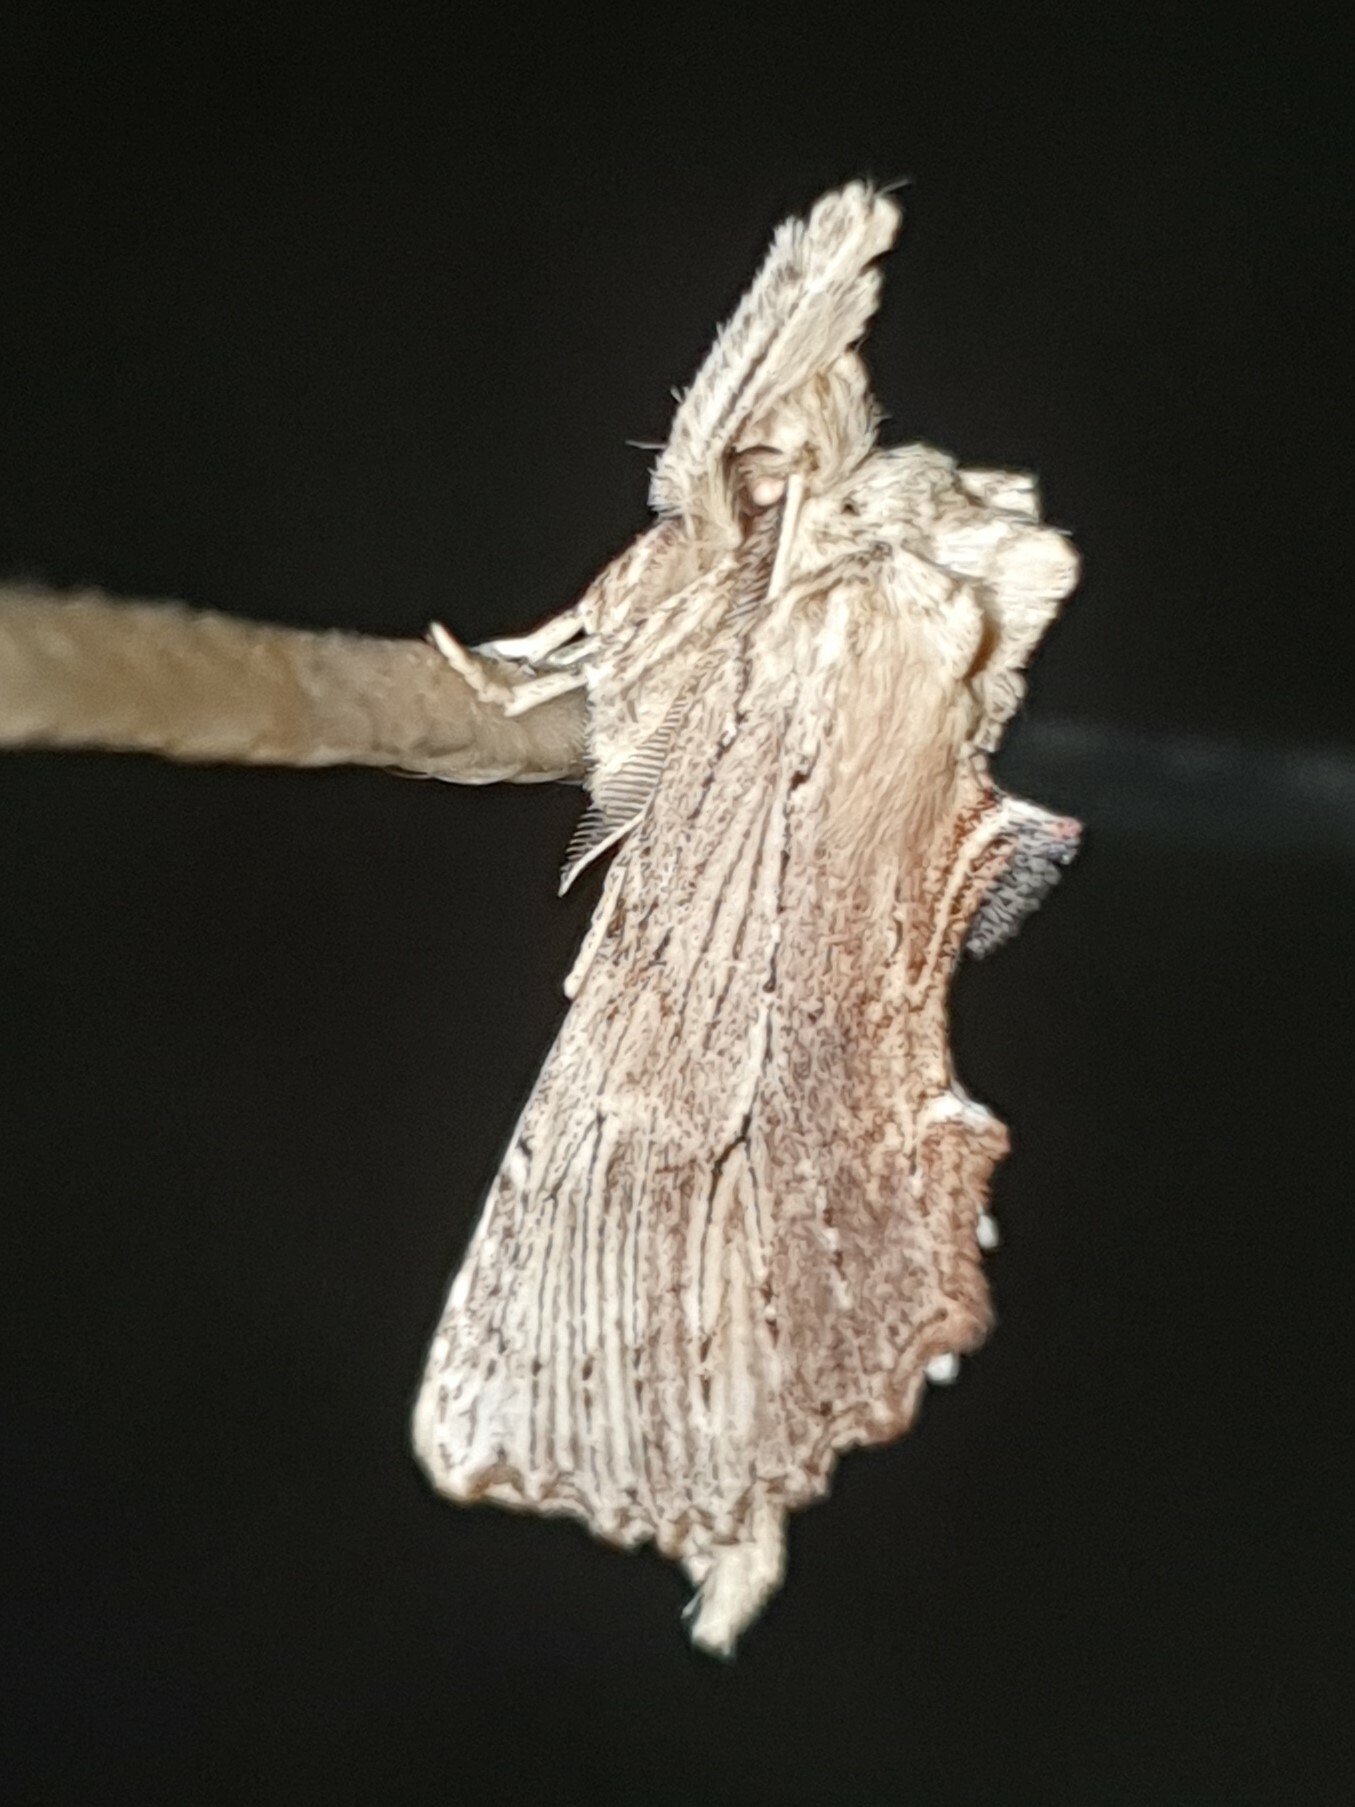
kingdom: Animalia
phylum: Arthropoda
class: Insecta
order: Lepidoptera
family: Notodontidae
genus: Pterostoma
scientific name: Pterostoma palpina
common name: Pale prominent
